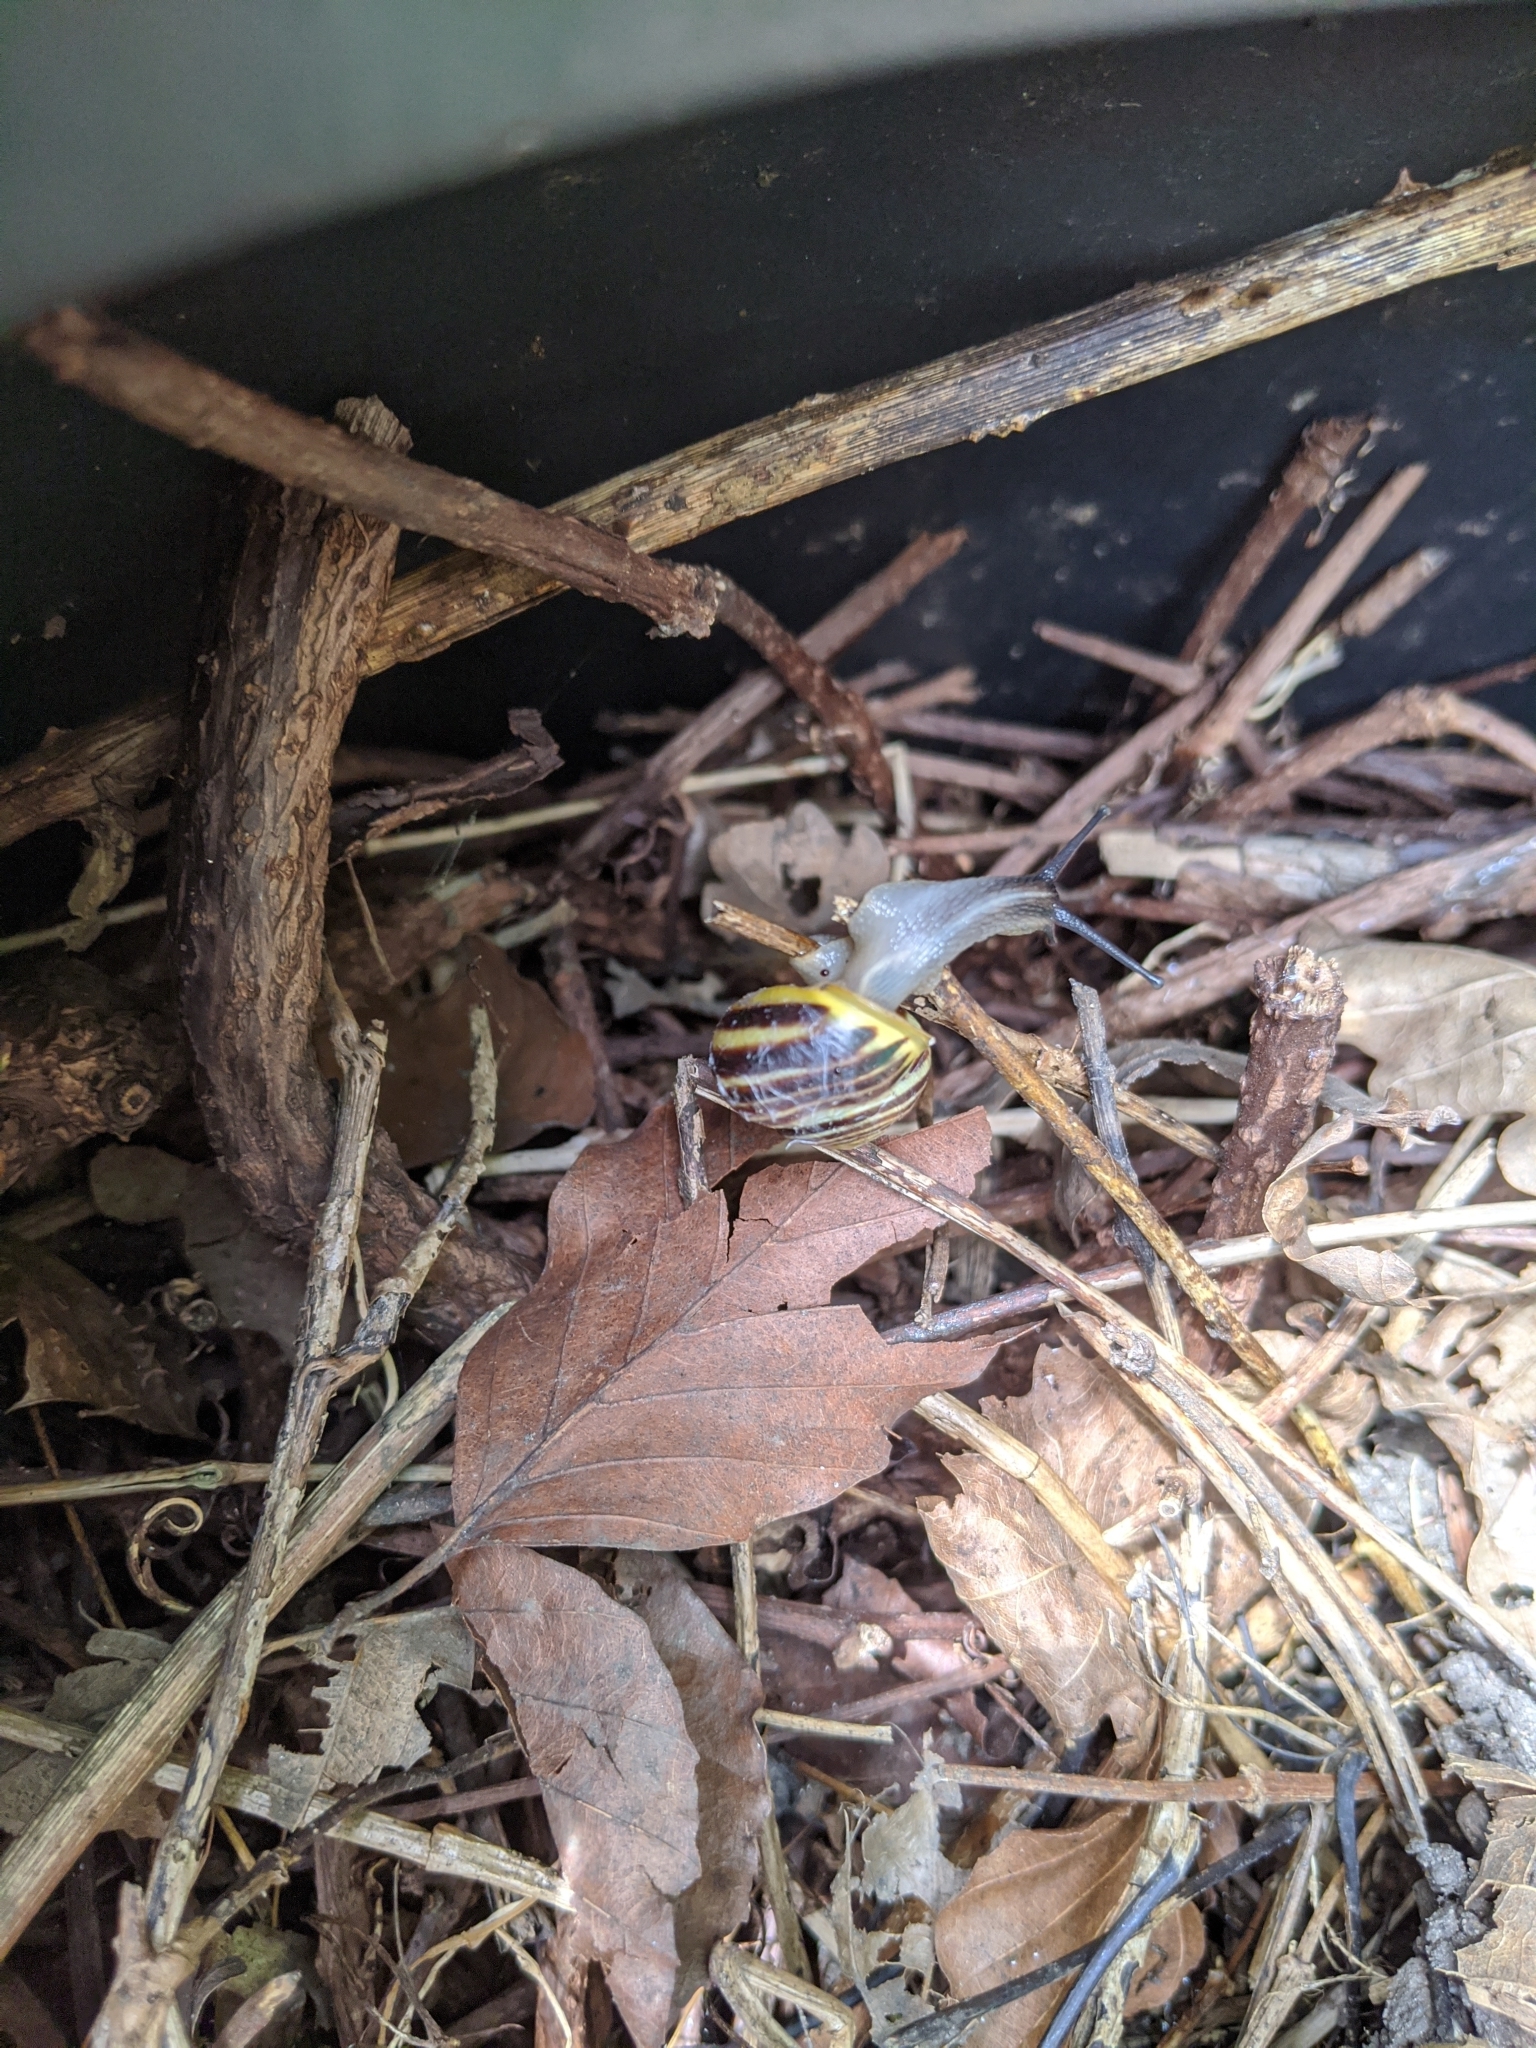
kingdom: Animalia
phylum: Mollusca
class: Gastropoda
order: Stylommatophora
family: Helicidae
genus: Cepaea
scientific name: Cepaea hortensis
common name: White-lip gardensnail
